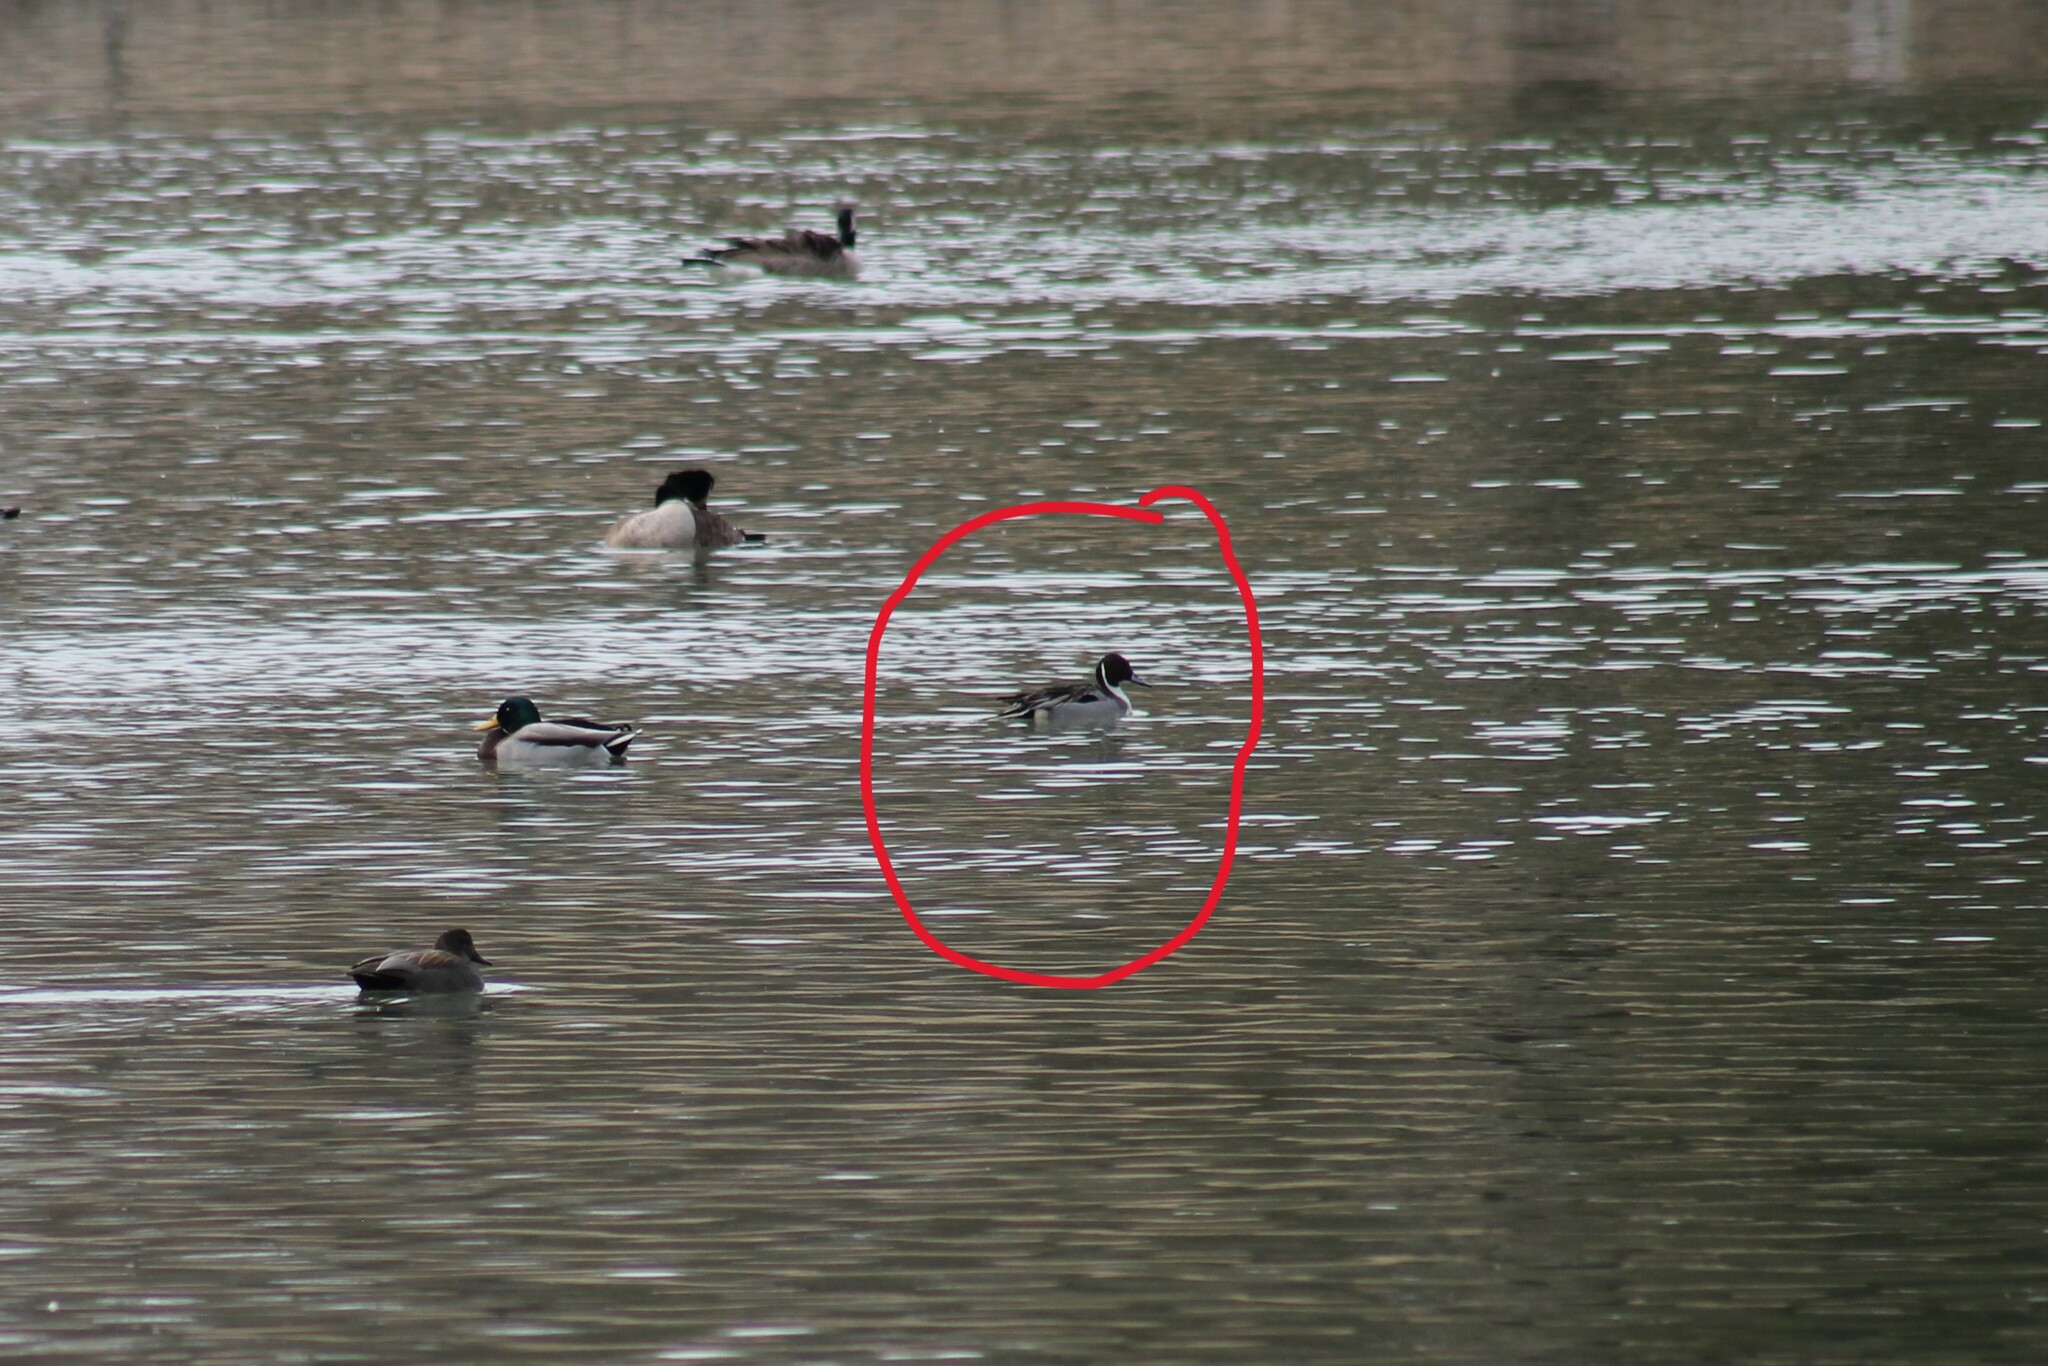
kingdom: Animalia
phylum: Chordata
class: Aves
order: Anseriformes
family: Anatidae
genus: Anas
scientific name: Anas acuta
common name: Northern pintail
